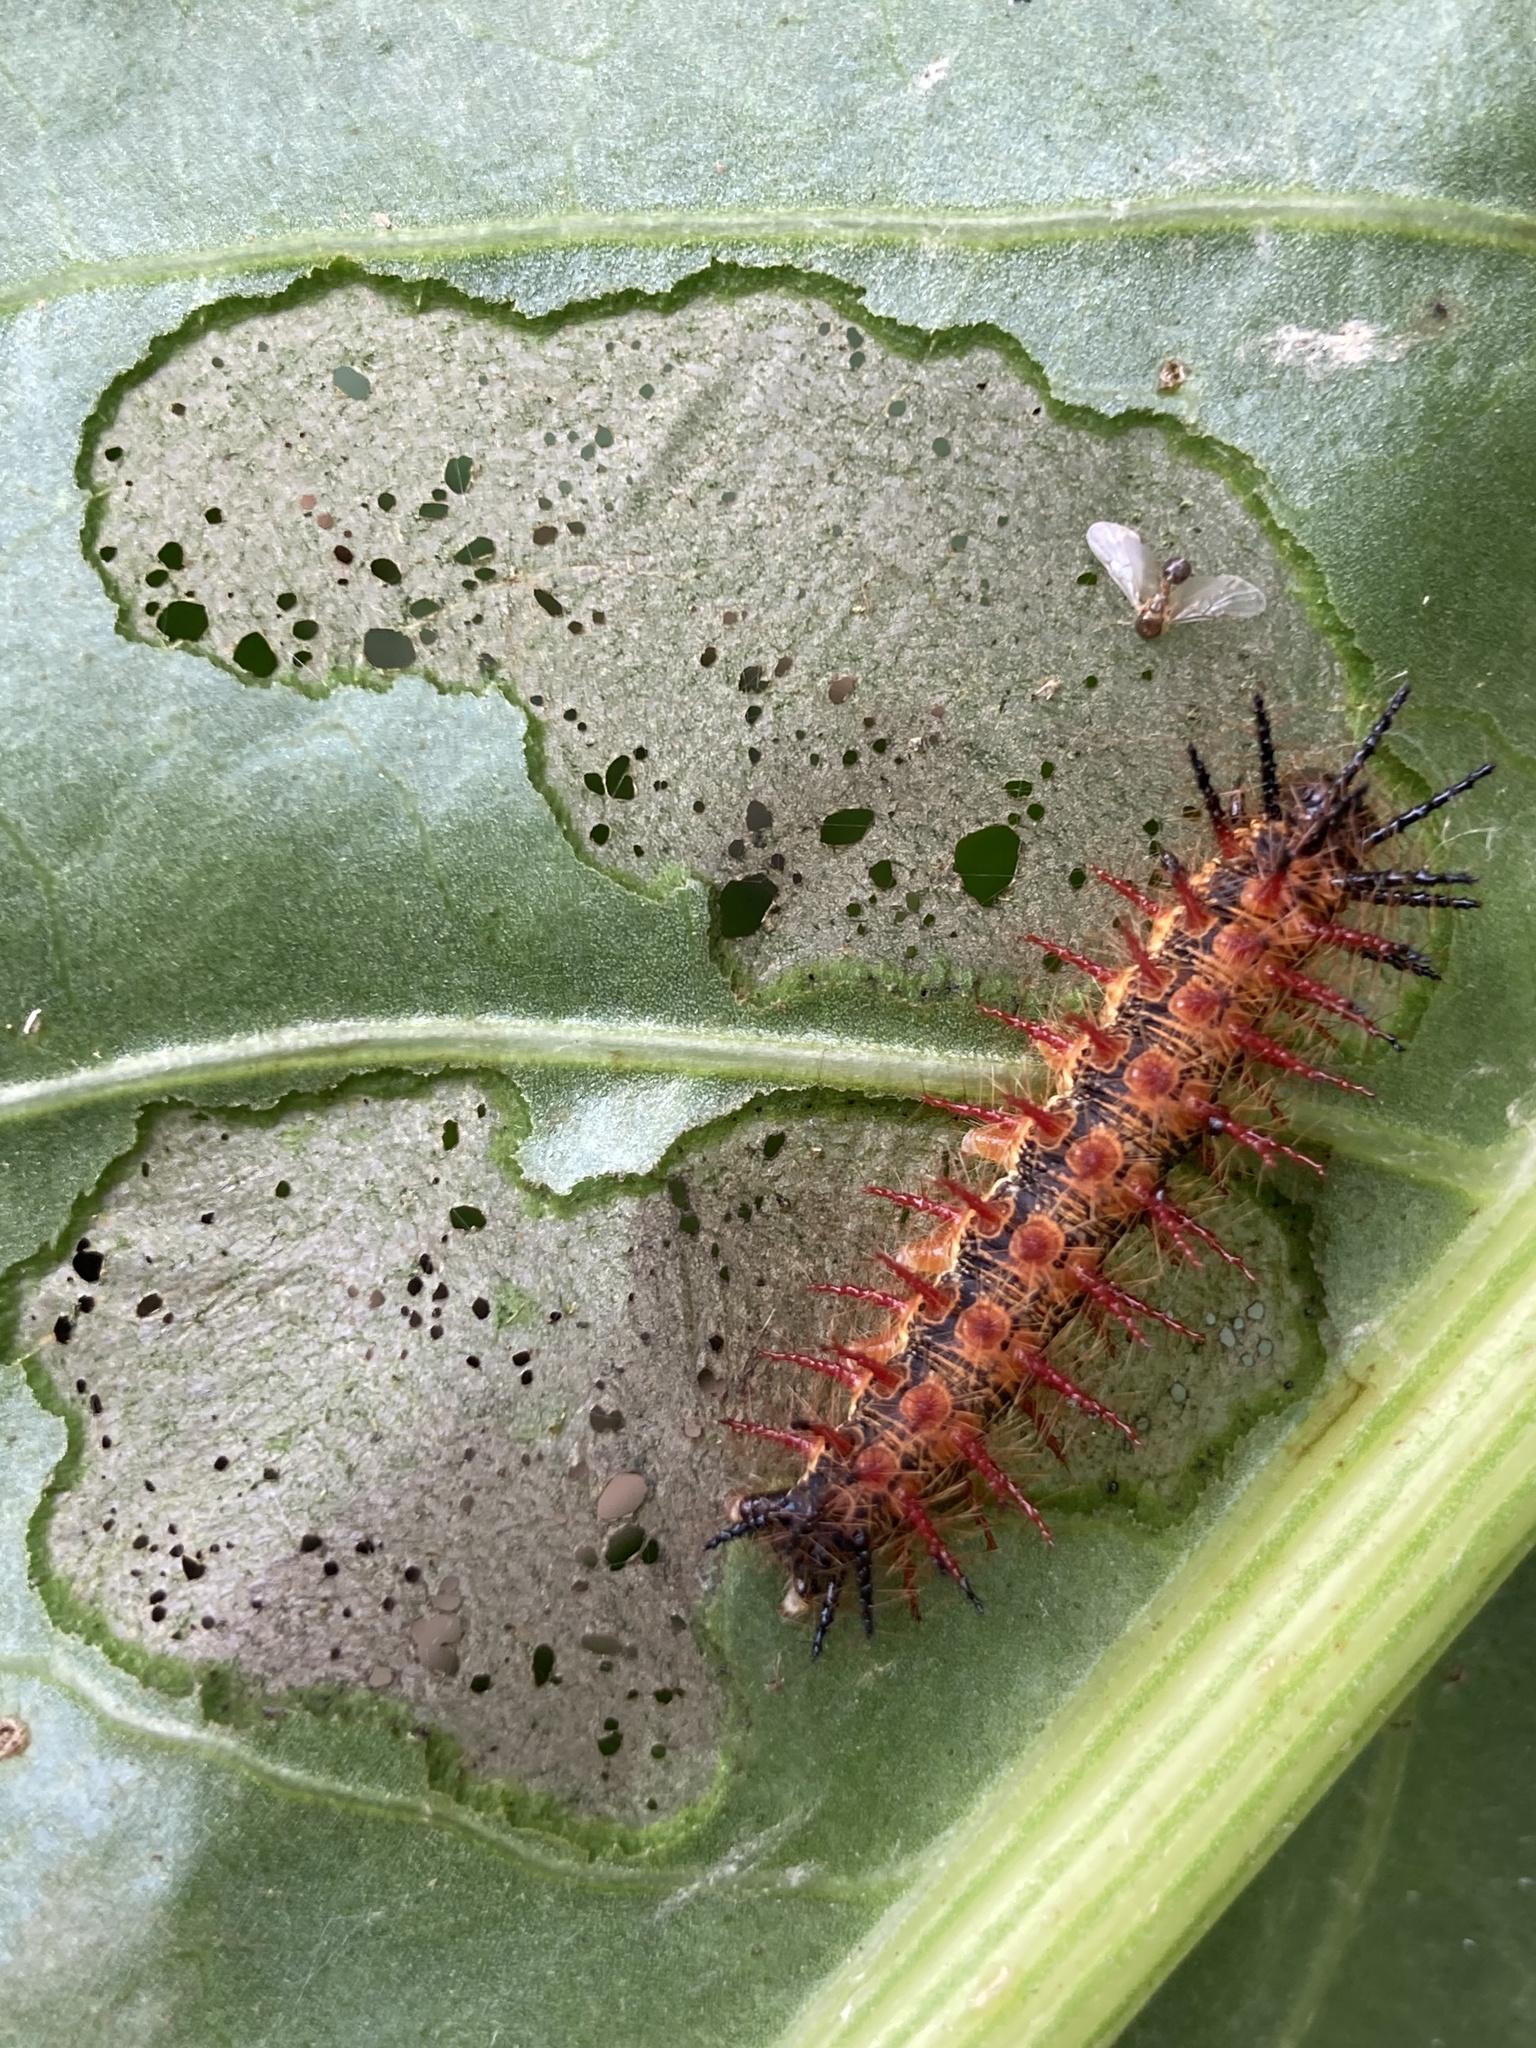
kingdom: Animalia
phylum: Arthropoda
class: Insecta
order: Lepidoptera
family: Nymphalidae
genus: Acraea
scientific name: Acraea momina
